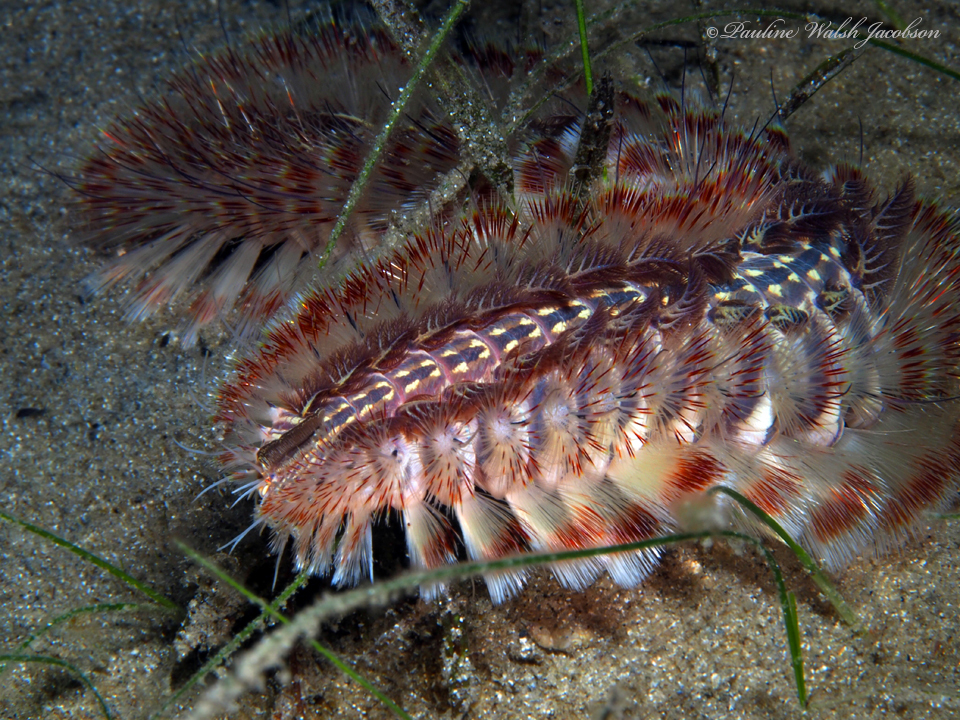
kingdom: Animalia
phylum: Annelida
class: Polychaeta
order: Amphinomida
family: Amphinomidae
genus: Chloeia
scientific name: Chloeia euglochis
